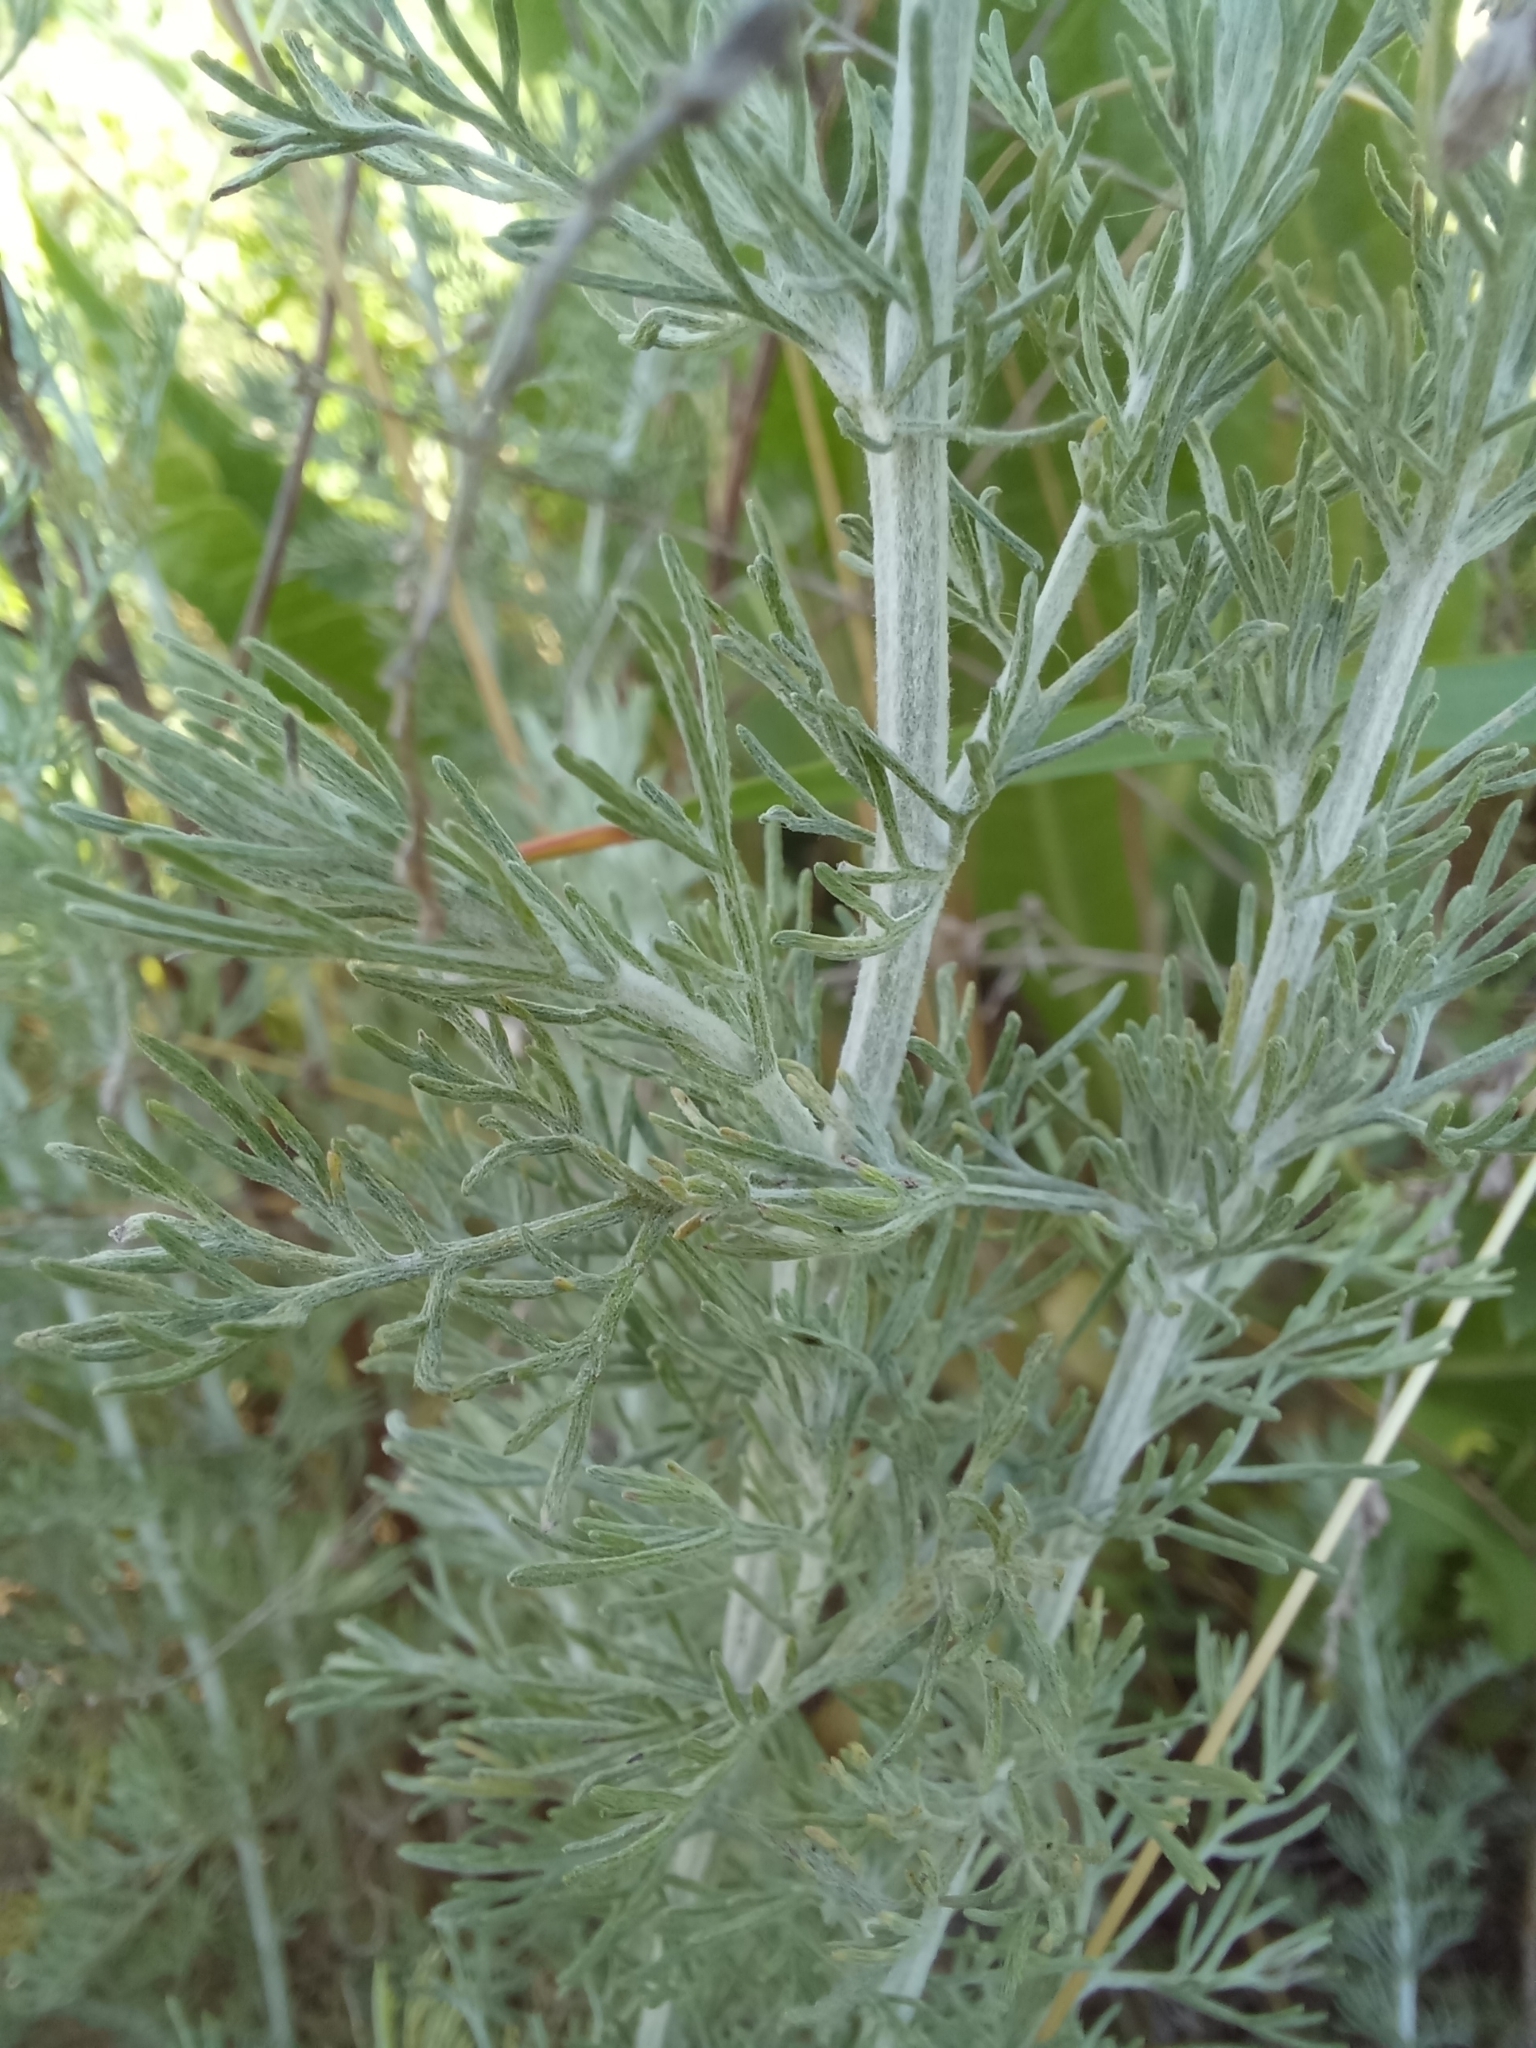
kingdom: Plantae
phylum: Tracheophyta
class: Magnoliopsida
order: Asterales
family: Asteraceae
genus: Artemisia
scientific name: Artemisia austriaca
